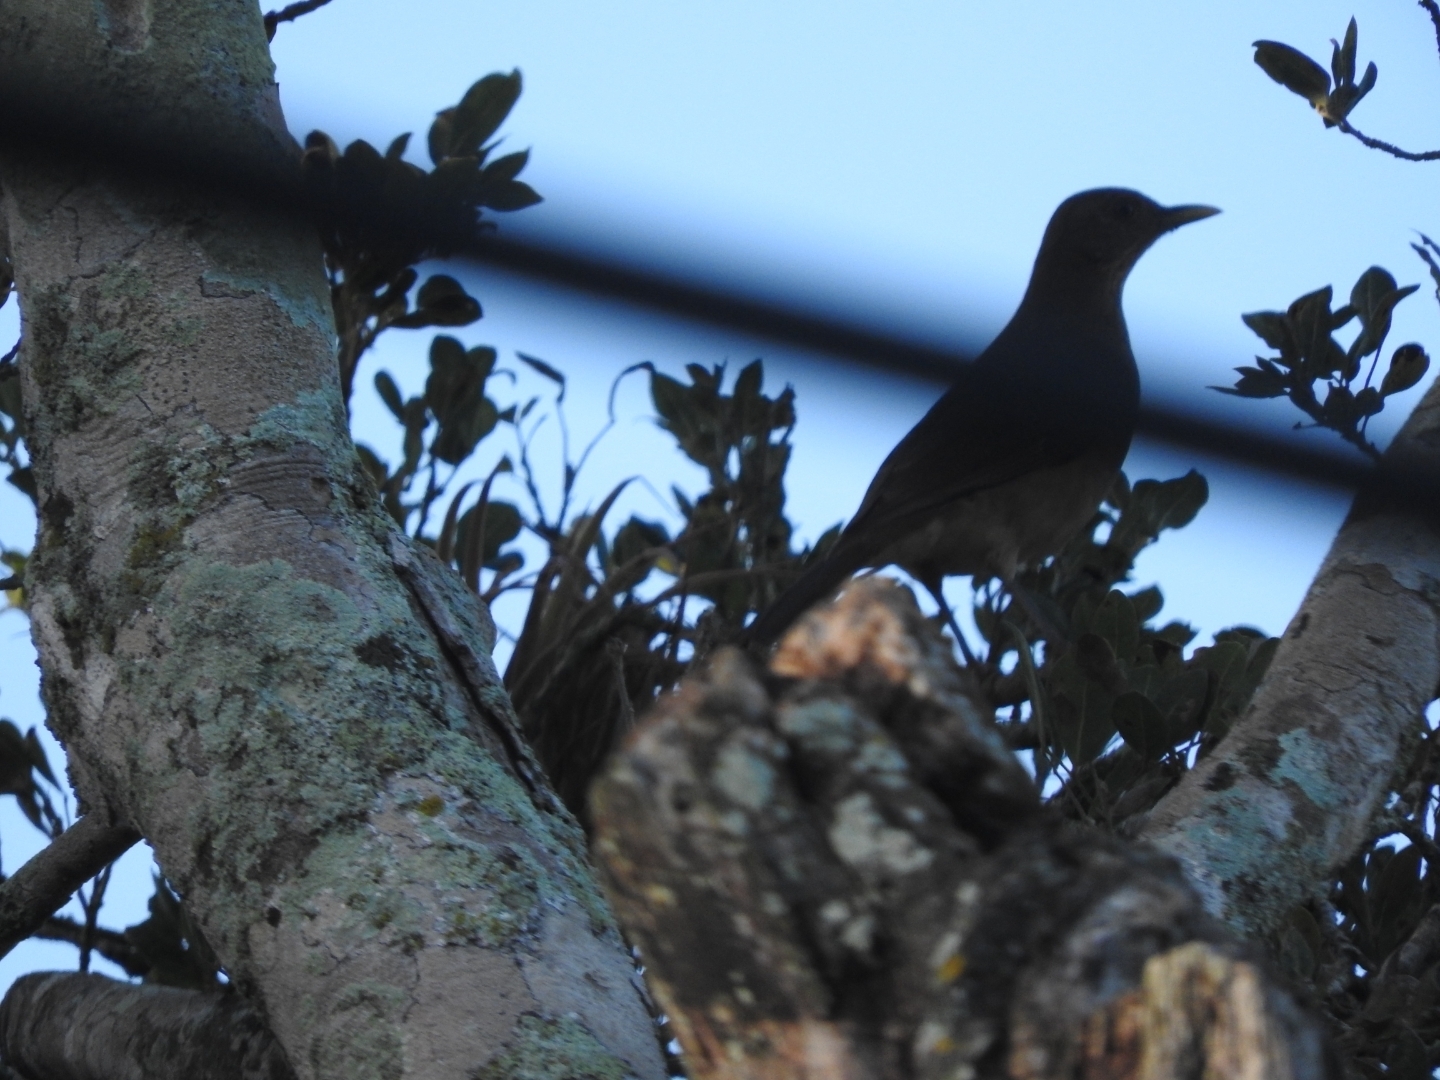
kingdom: Animalia
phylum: Chordata
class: Aves
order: Passeriformes
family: Turdidae
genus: Turdus
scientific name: Turdus grayi
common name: Clay-colored thrush
